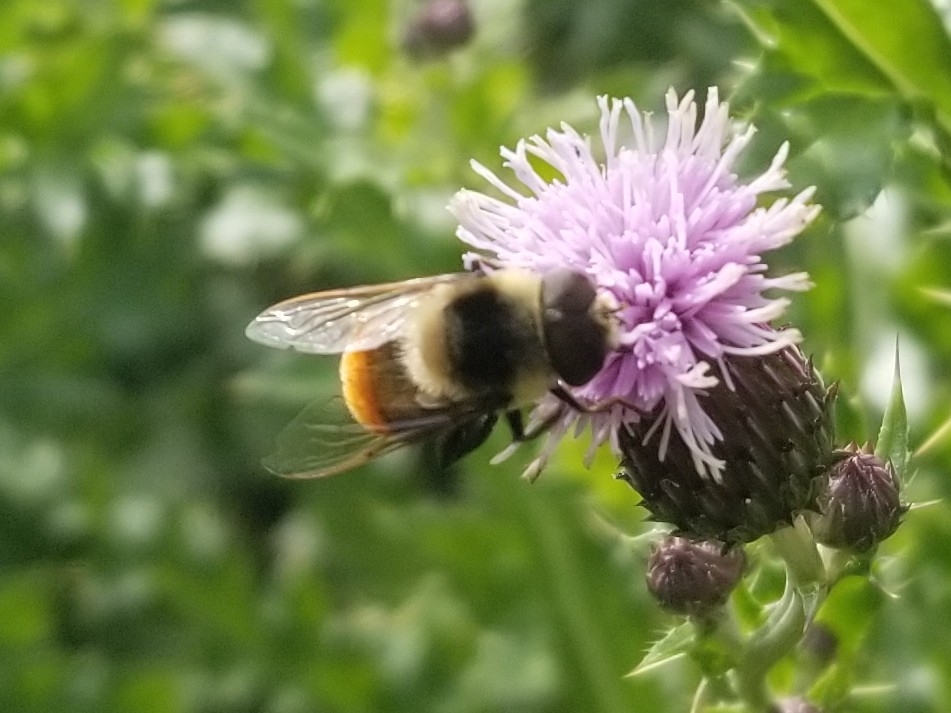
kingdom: Animalia
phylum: Arthropoda
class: Insecta
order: Diptera
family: Syrphidae
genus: Eristalis
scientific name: Eristalis flavipes
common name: Orange-legged drone fly
